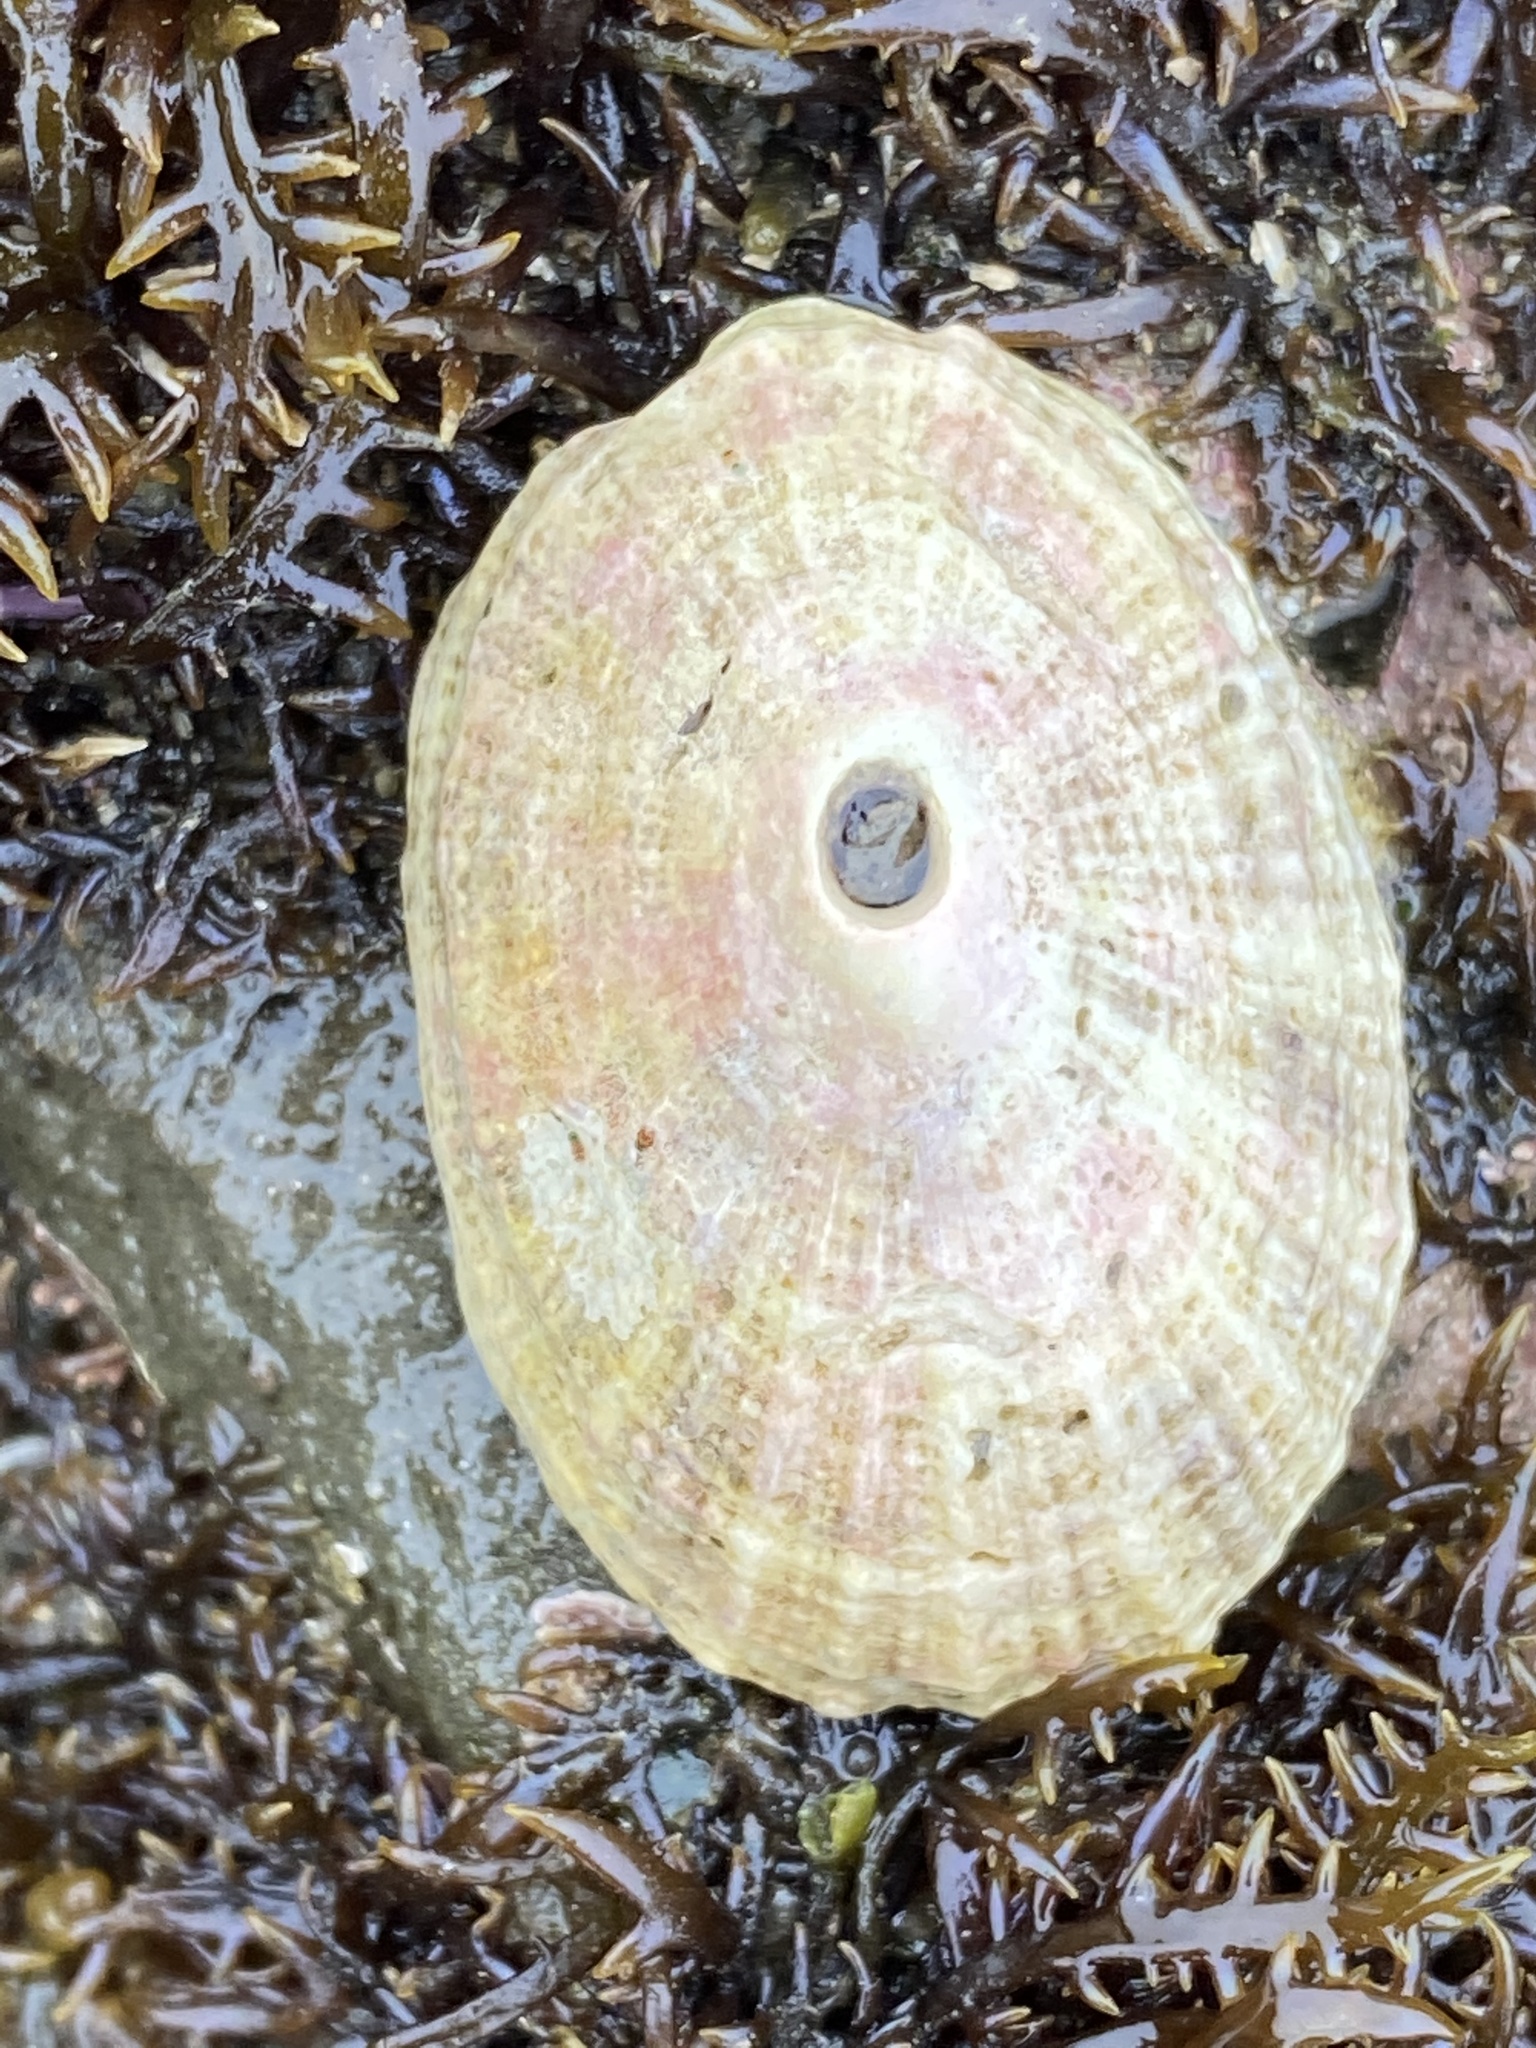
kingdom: Animalia
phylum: Mollusca
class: Gastropoda
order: Lepetellida
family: Fissurellidae
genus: Fissurella
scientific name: Fissurella volcano
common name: Volcano keyhole limpet
